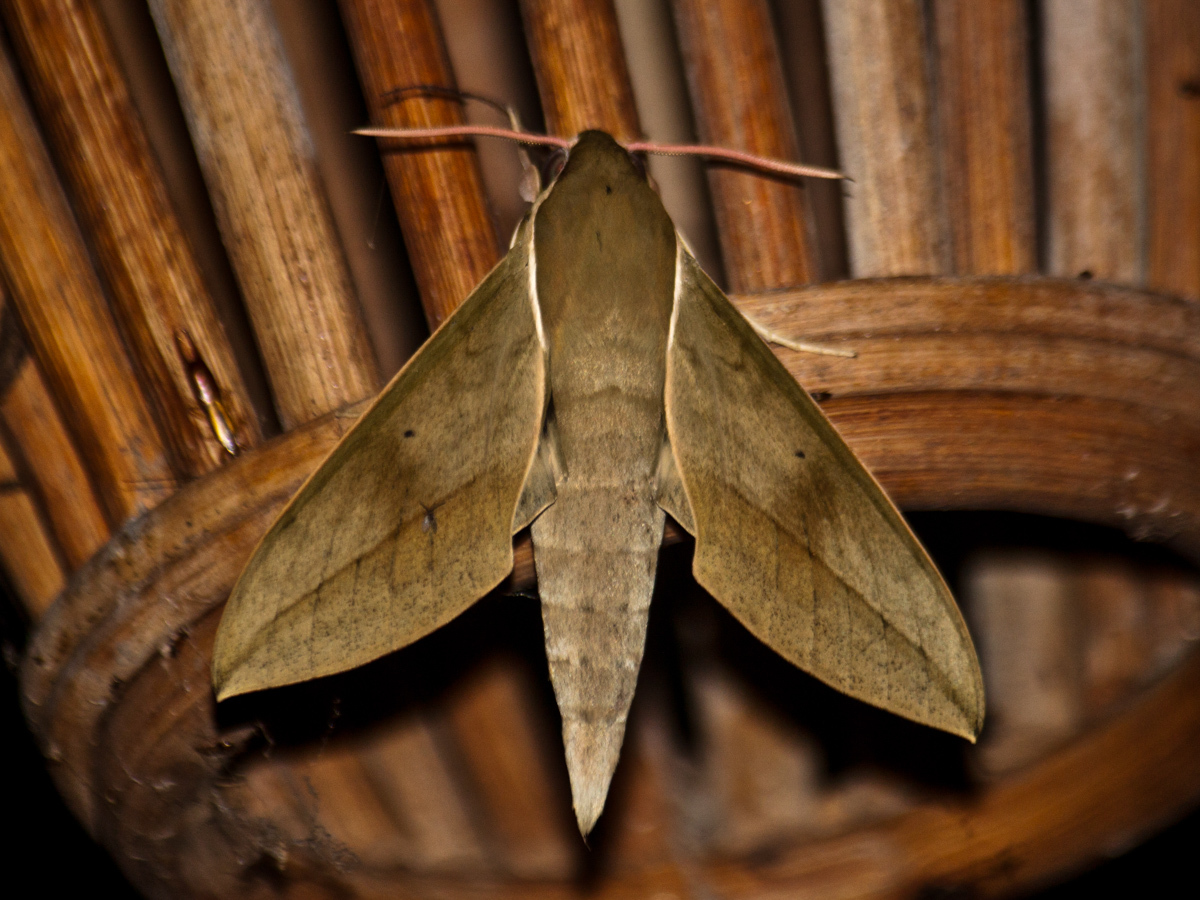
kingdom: Animalia
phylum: Arthropoda
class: Insecta
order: Lepidoptera
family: Sphingidae
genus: Theretra
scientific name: Theretra boisduvalii
